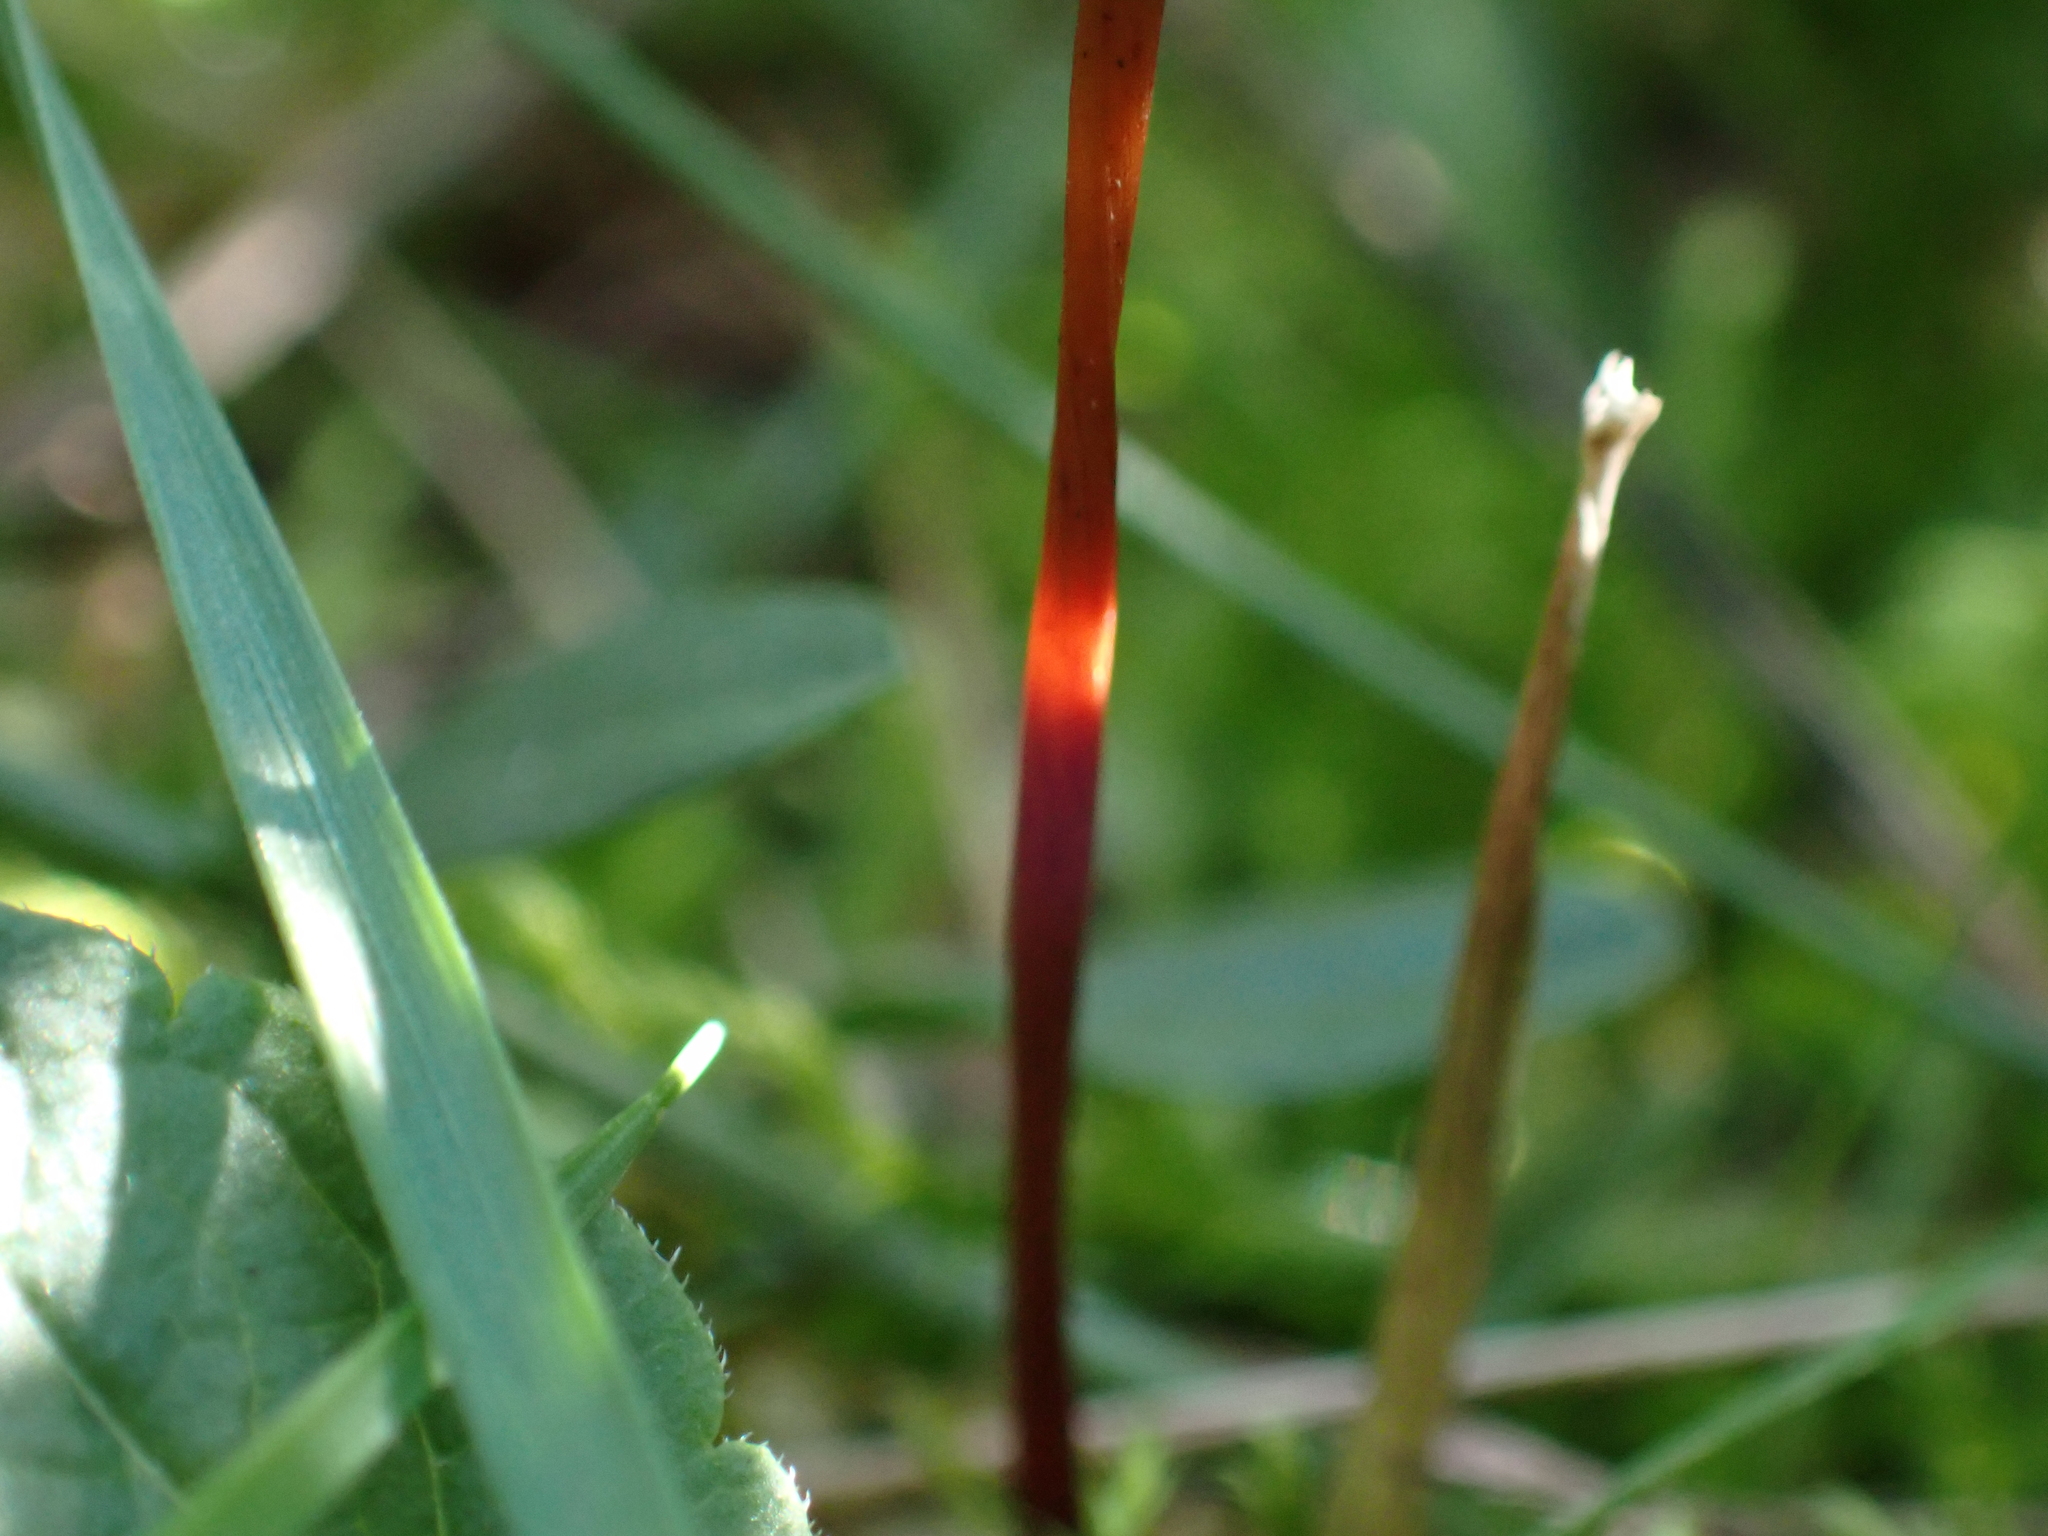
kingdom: Fungi
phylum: Basidiomycota
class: Agaricomycetes
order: Agaricales
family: Omphalotaceae
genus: Mycetinis
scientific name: Mycetinis scorodonius
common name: Vampires bane
